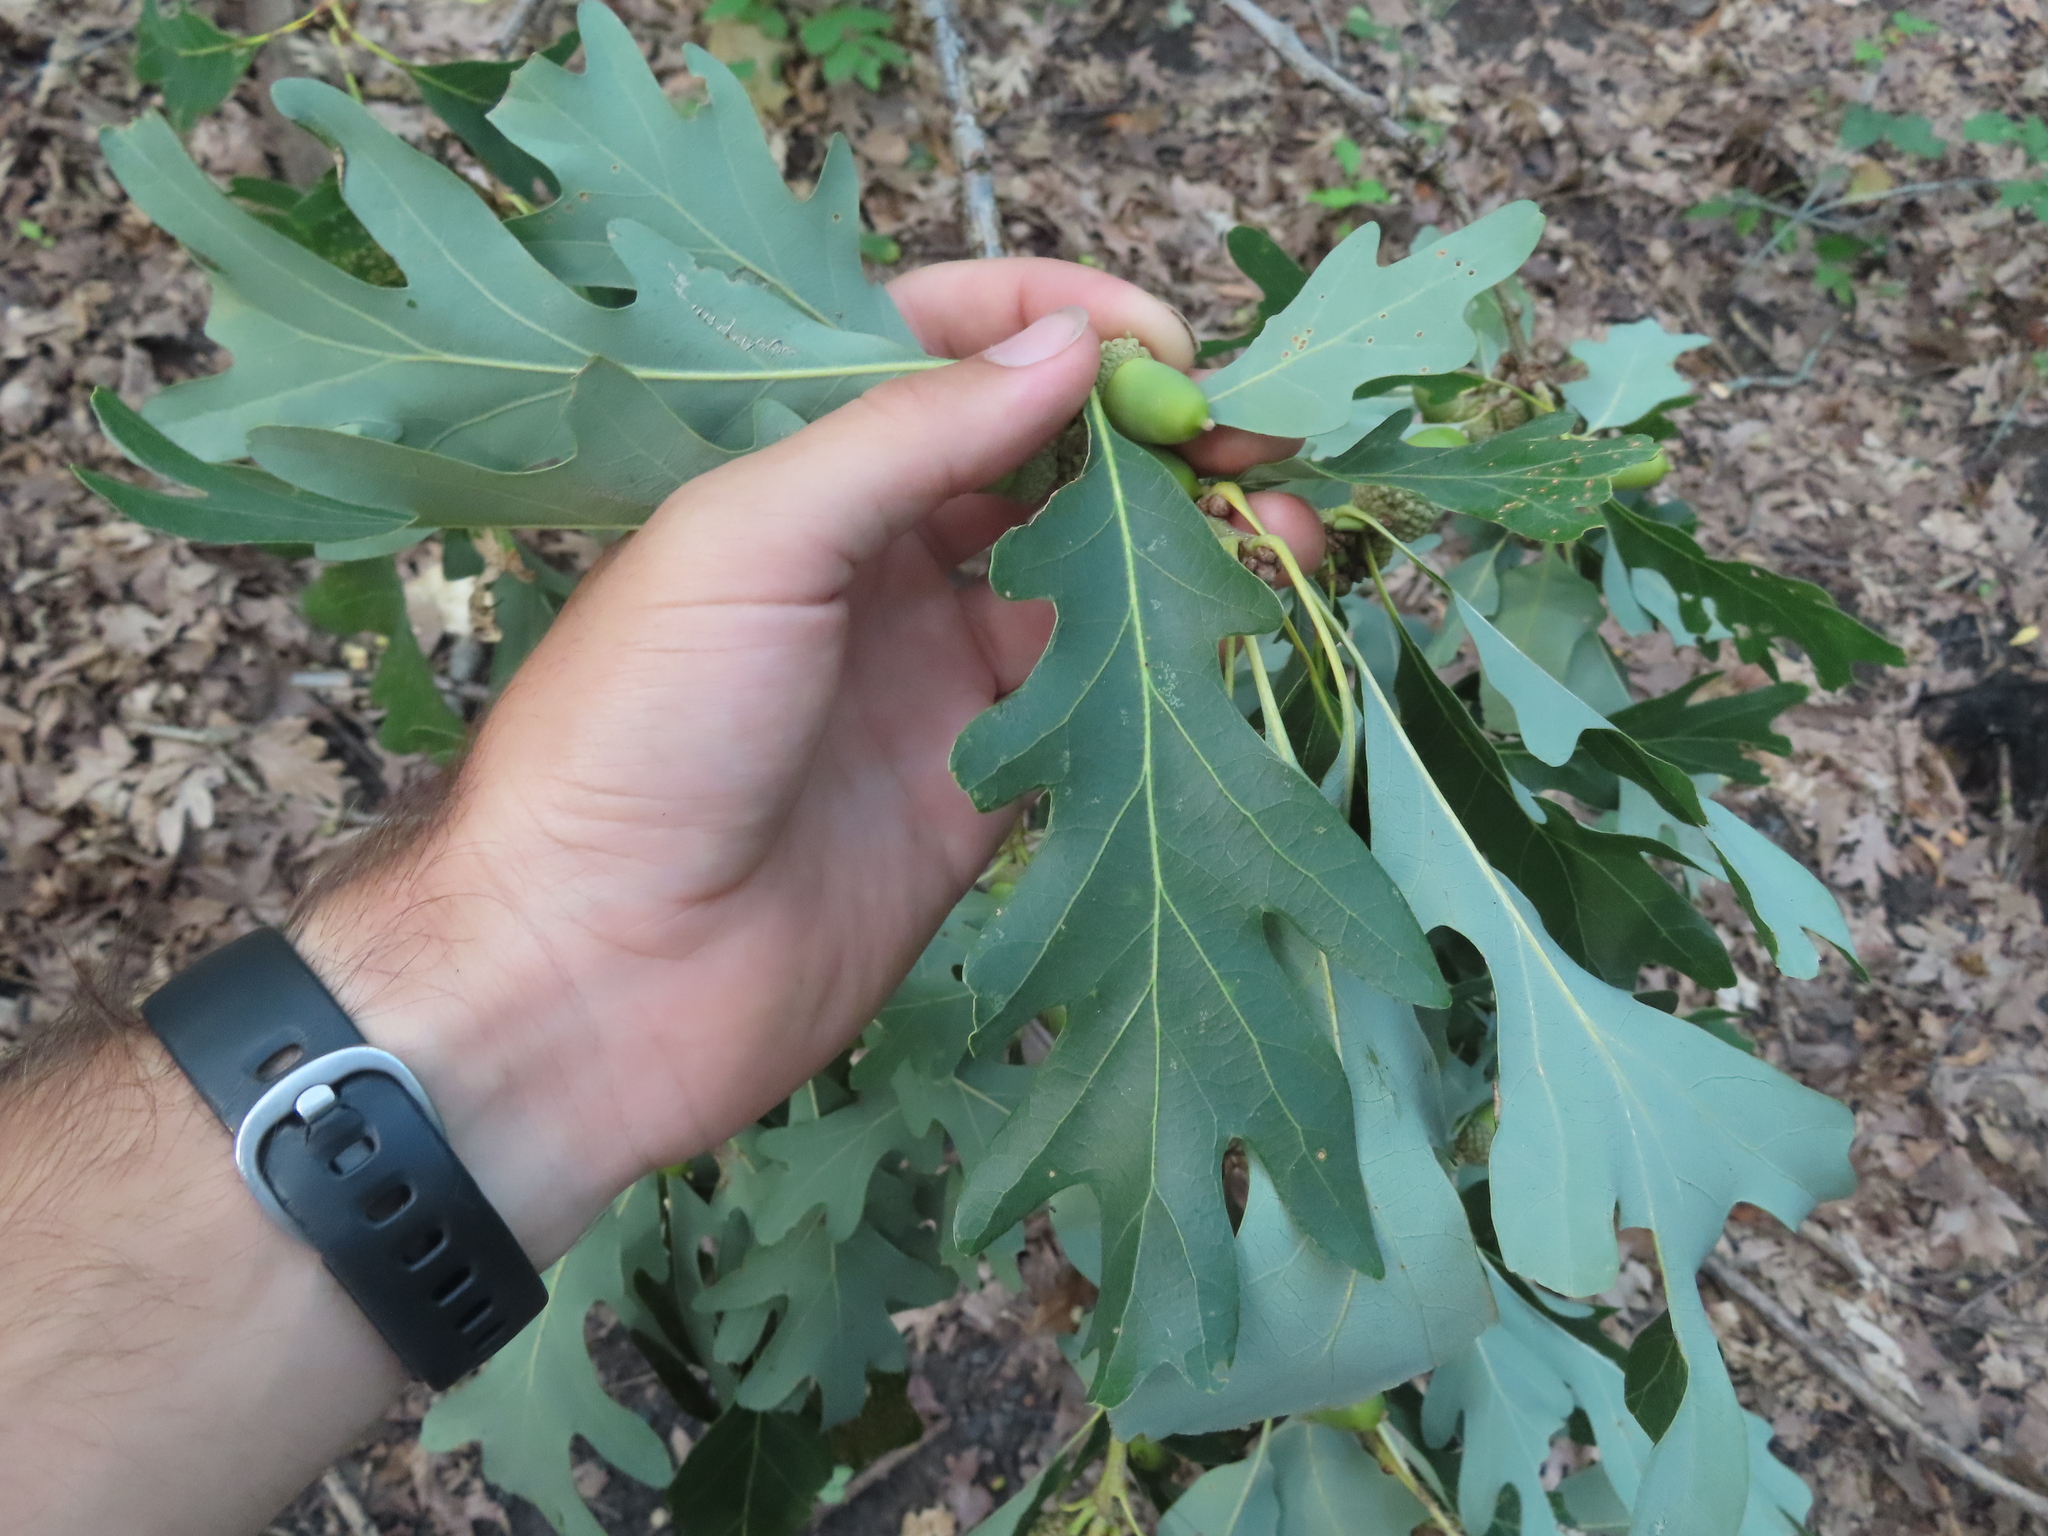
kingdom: Plantae
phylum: Tracheophyta
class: Magnoliopsida
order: Fagales
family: Fagaceae
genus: Quercus
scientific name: Quercus alba
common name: White oak
